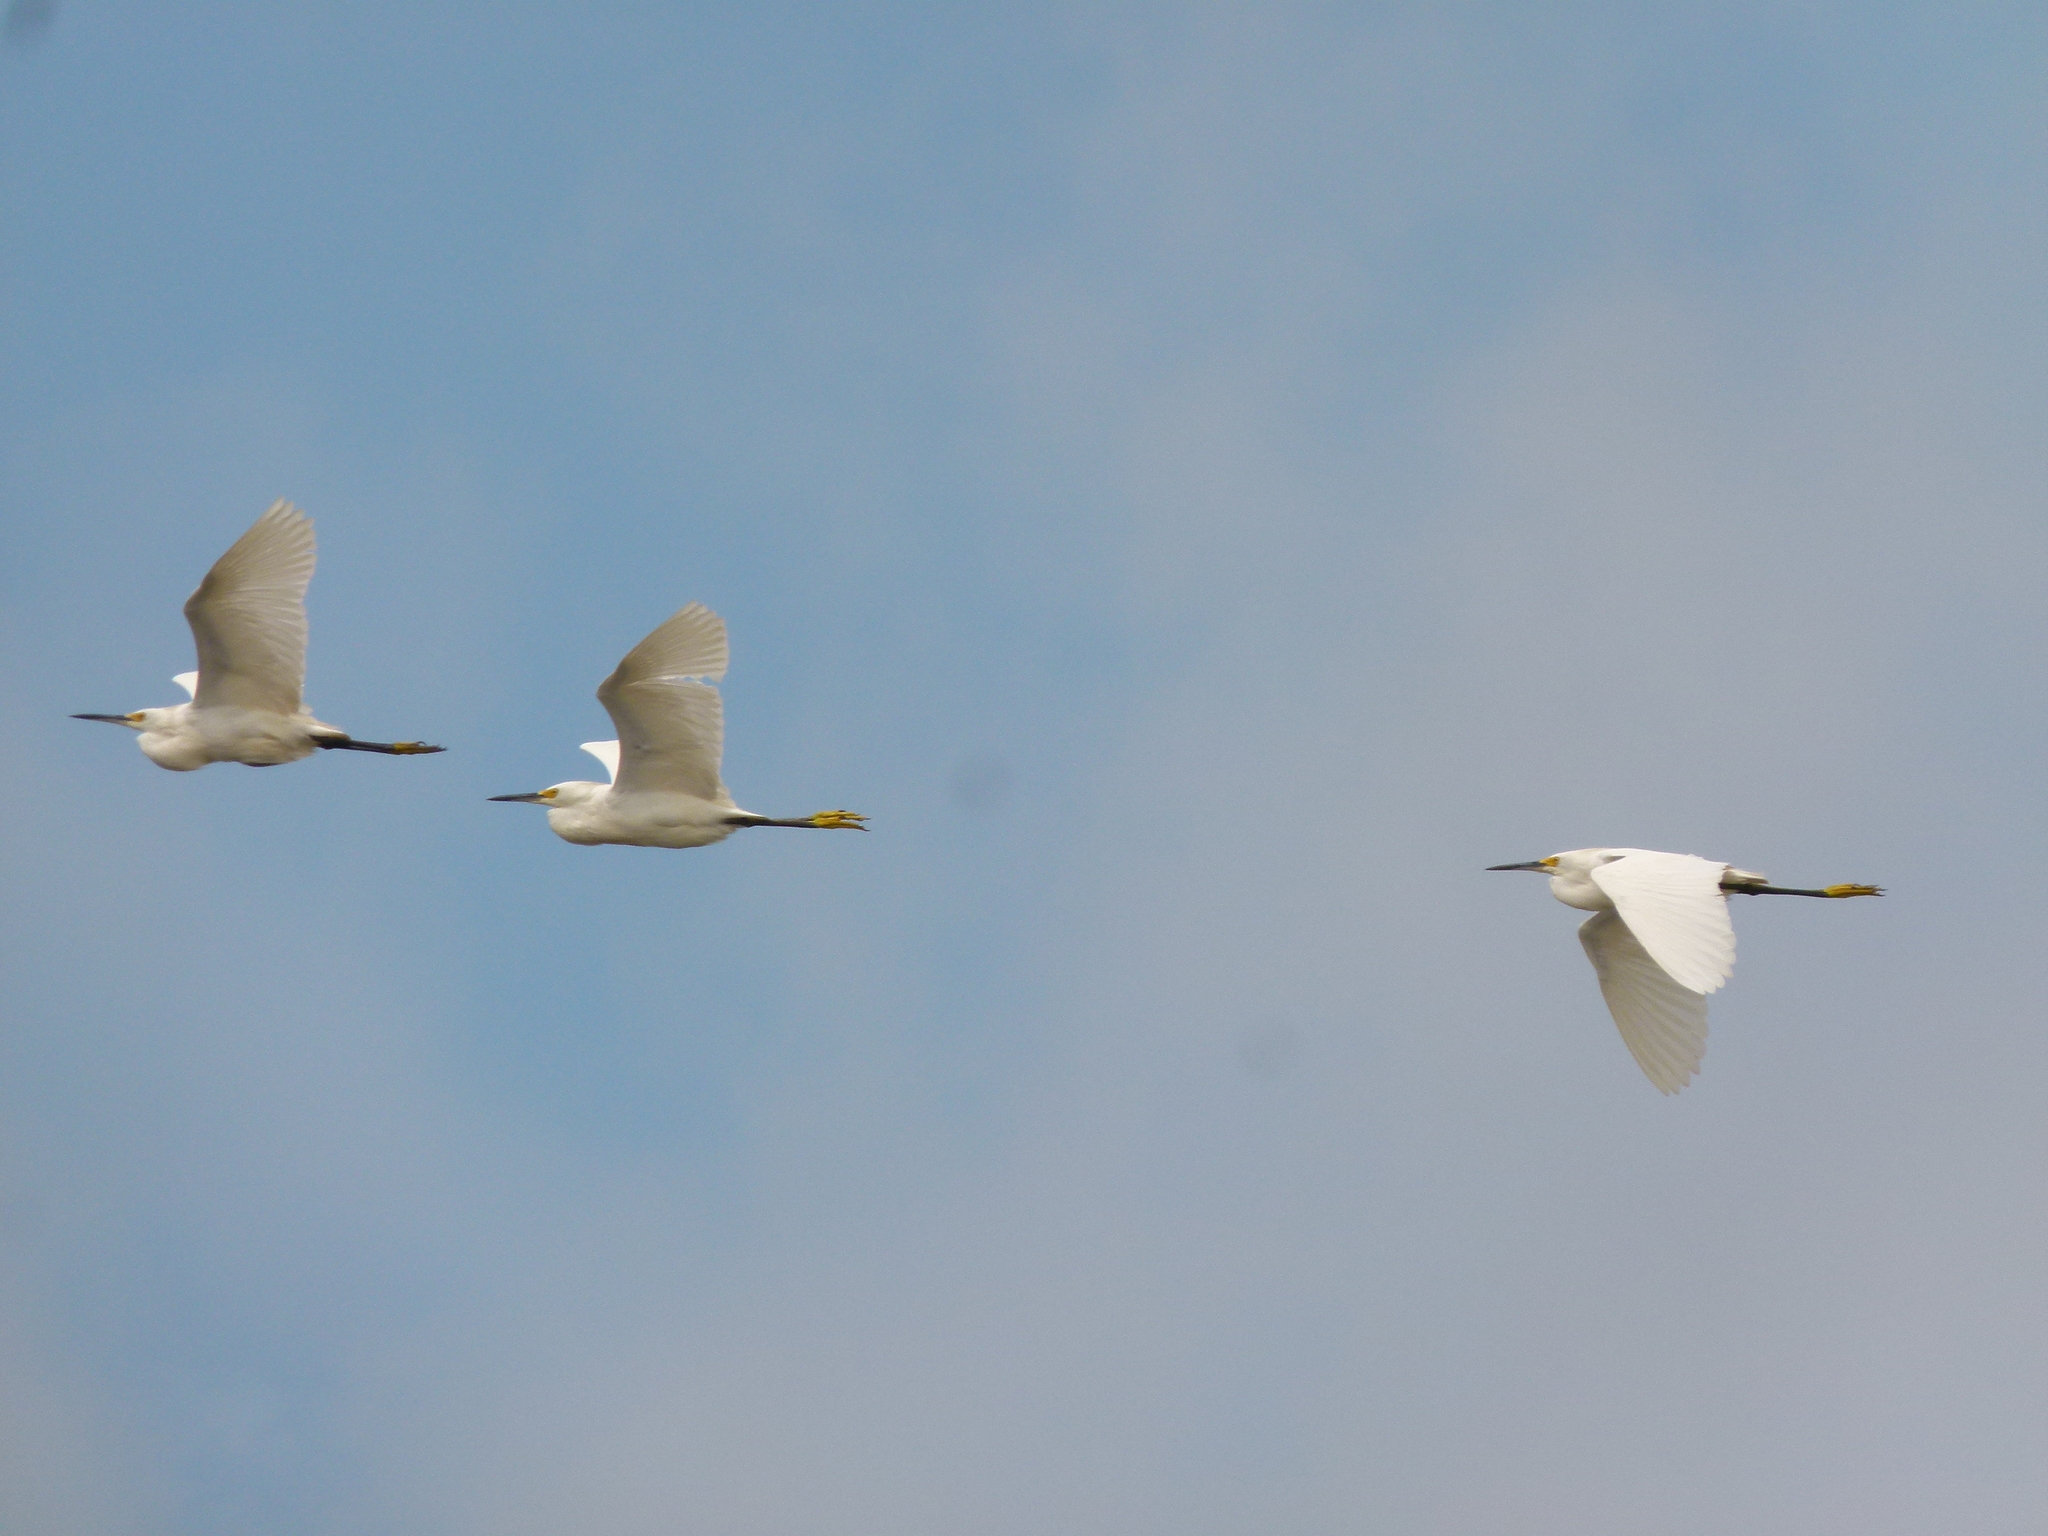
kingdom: Animalia
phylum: Chordata
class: Aves
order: Pelecaniformes
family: Ardeidae
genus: Egretta
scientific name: Egretta thula
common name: Snowy egret
